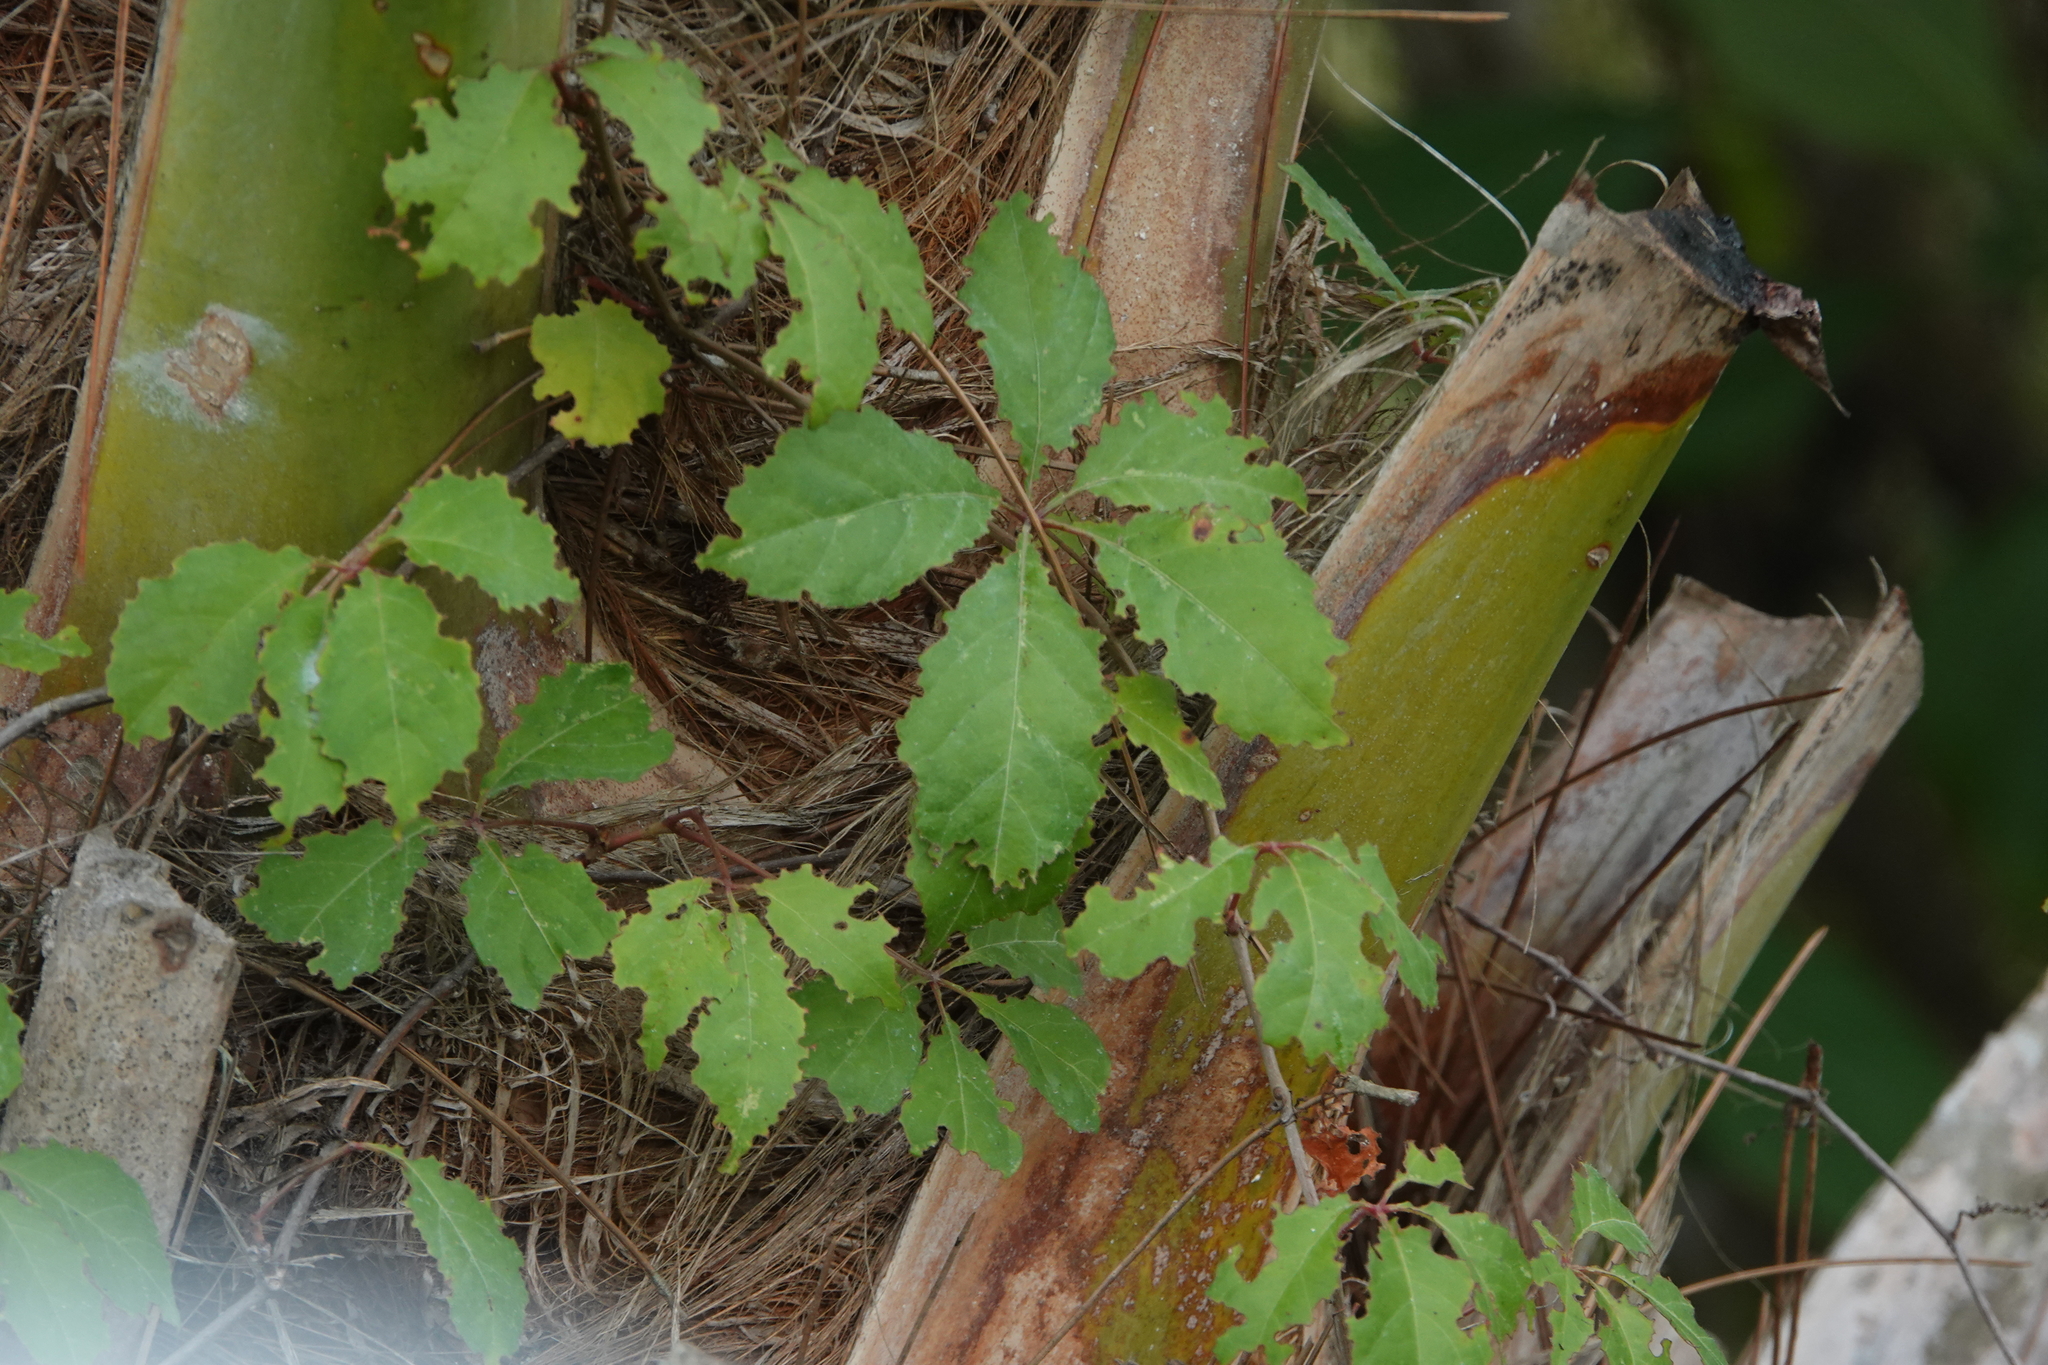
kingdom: Plantae
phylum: Tracheophyta
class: Magnoliopsida
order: Vitales
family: Vitaceae
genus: Parthenocissus
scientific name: Parthenocissus quinquefolia
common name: Virginia-creeper
